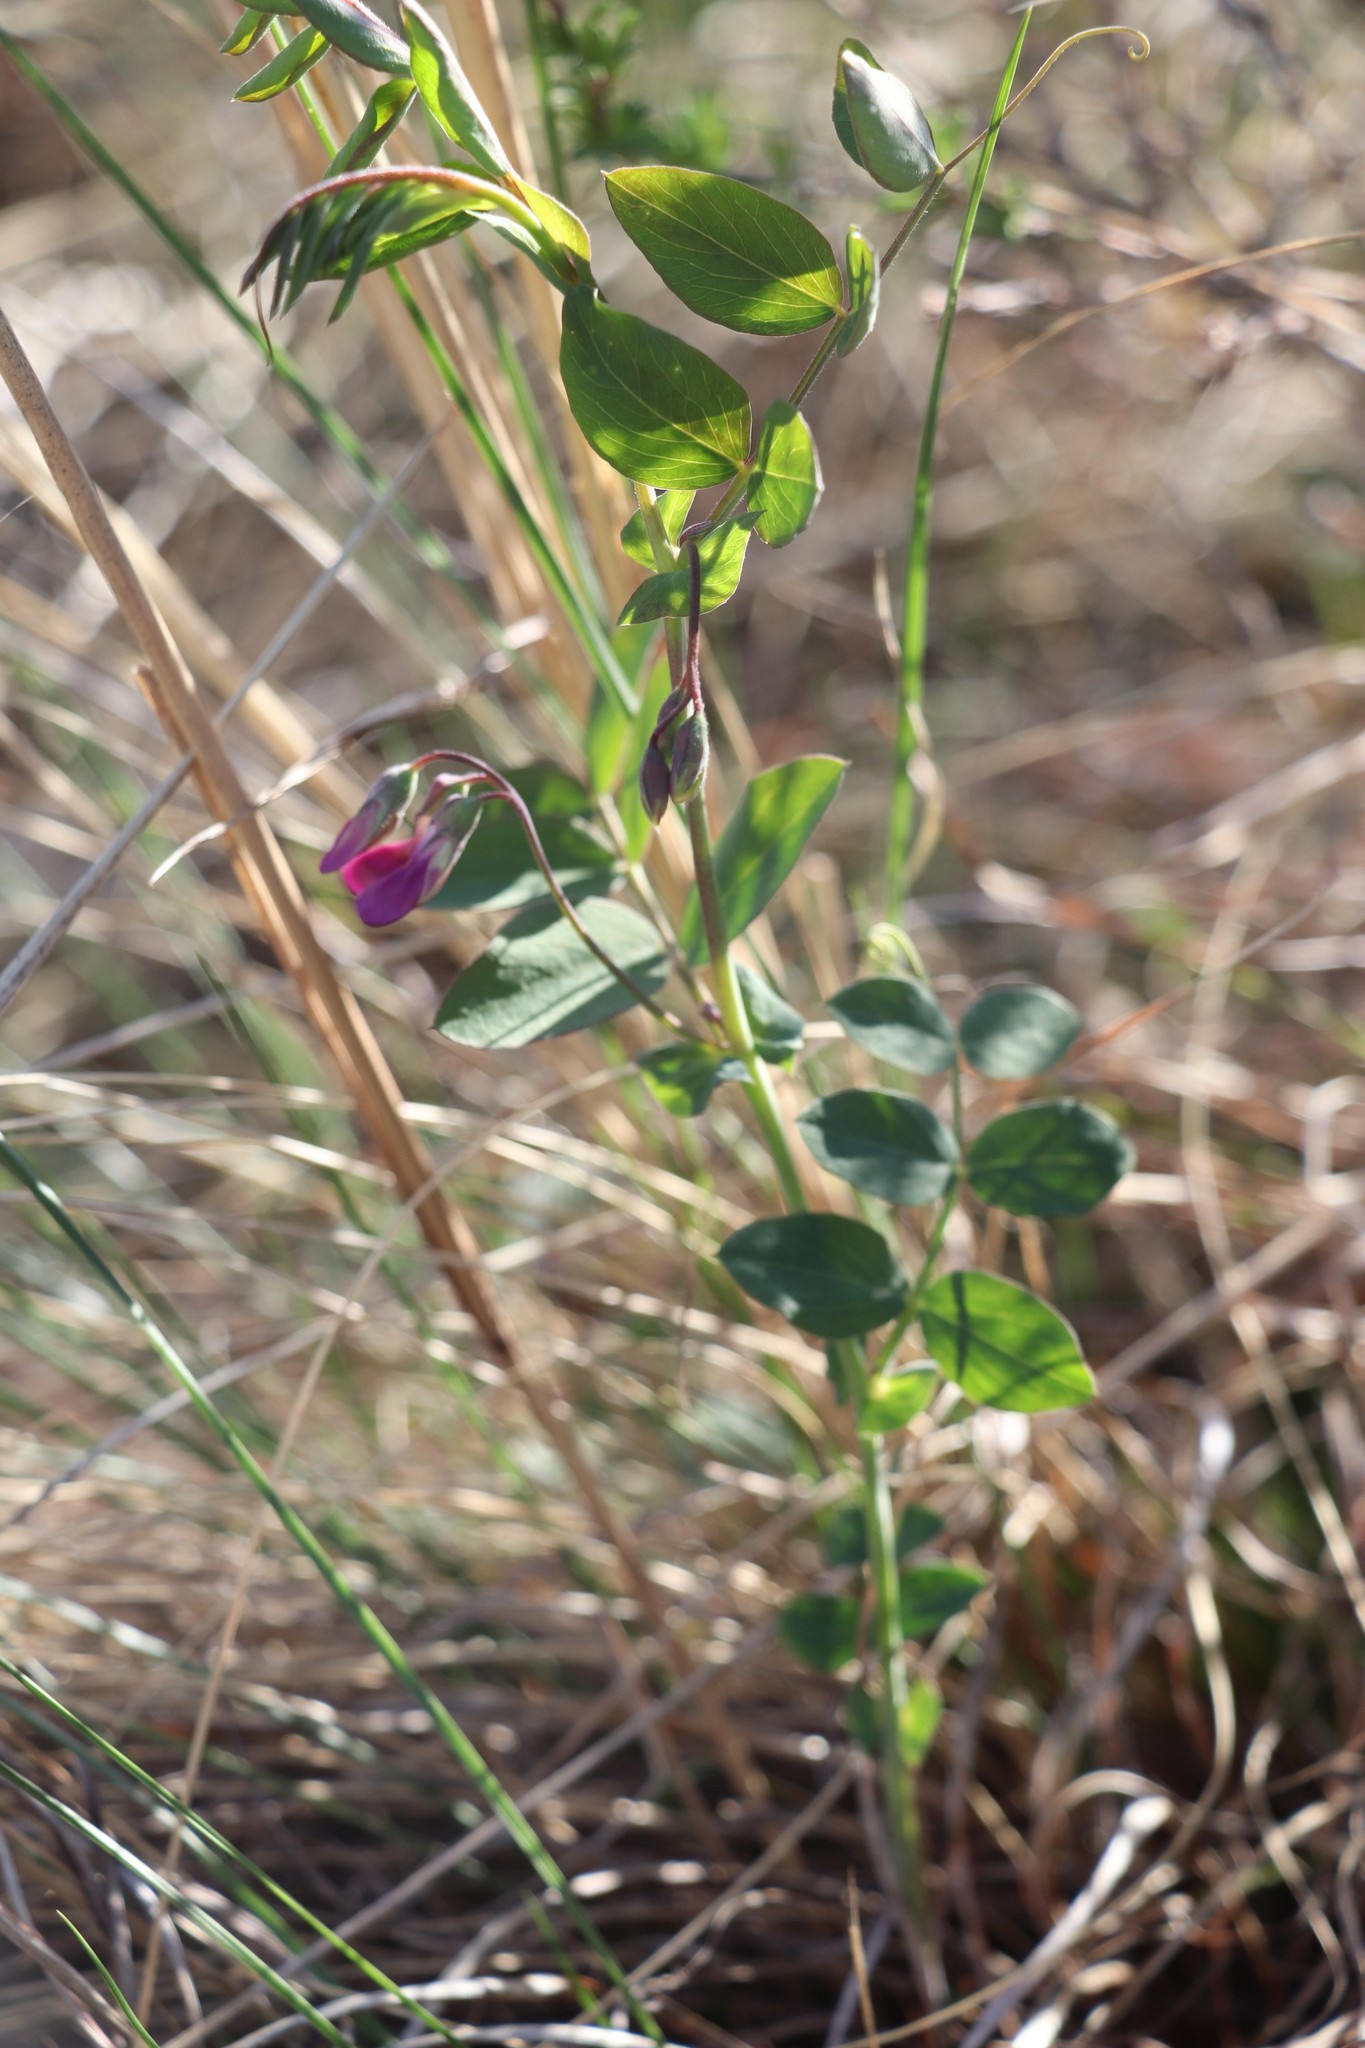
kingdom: Plantae
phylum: Tracheophyta
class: Magnoliopsida
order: Fabales
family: Fabaceae
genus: Lathyrus
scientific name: Lathyrus humilis
